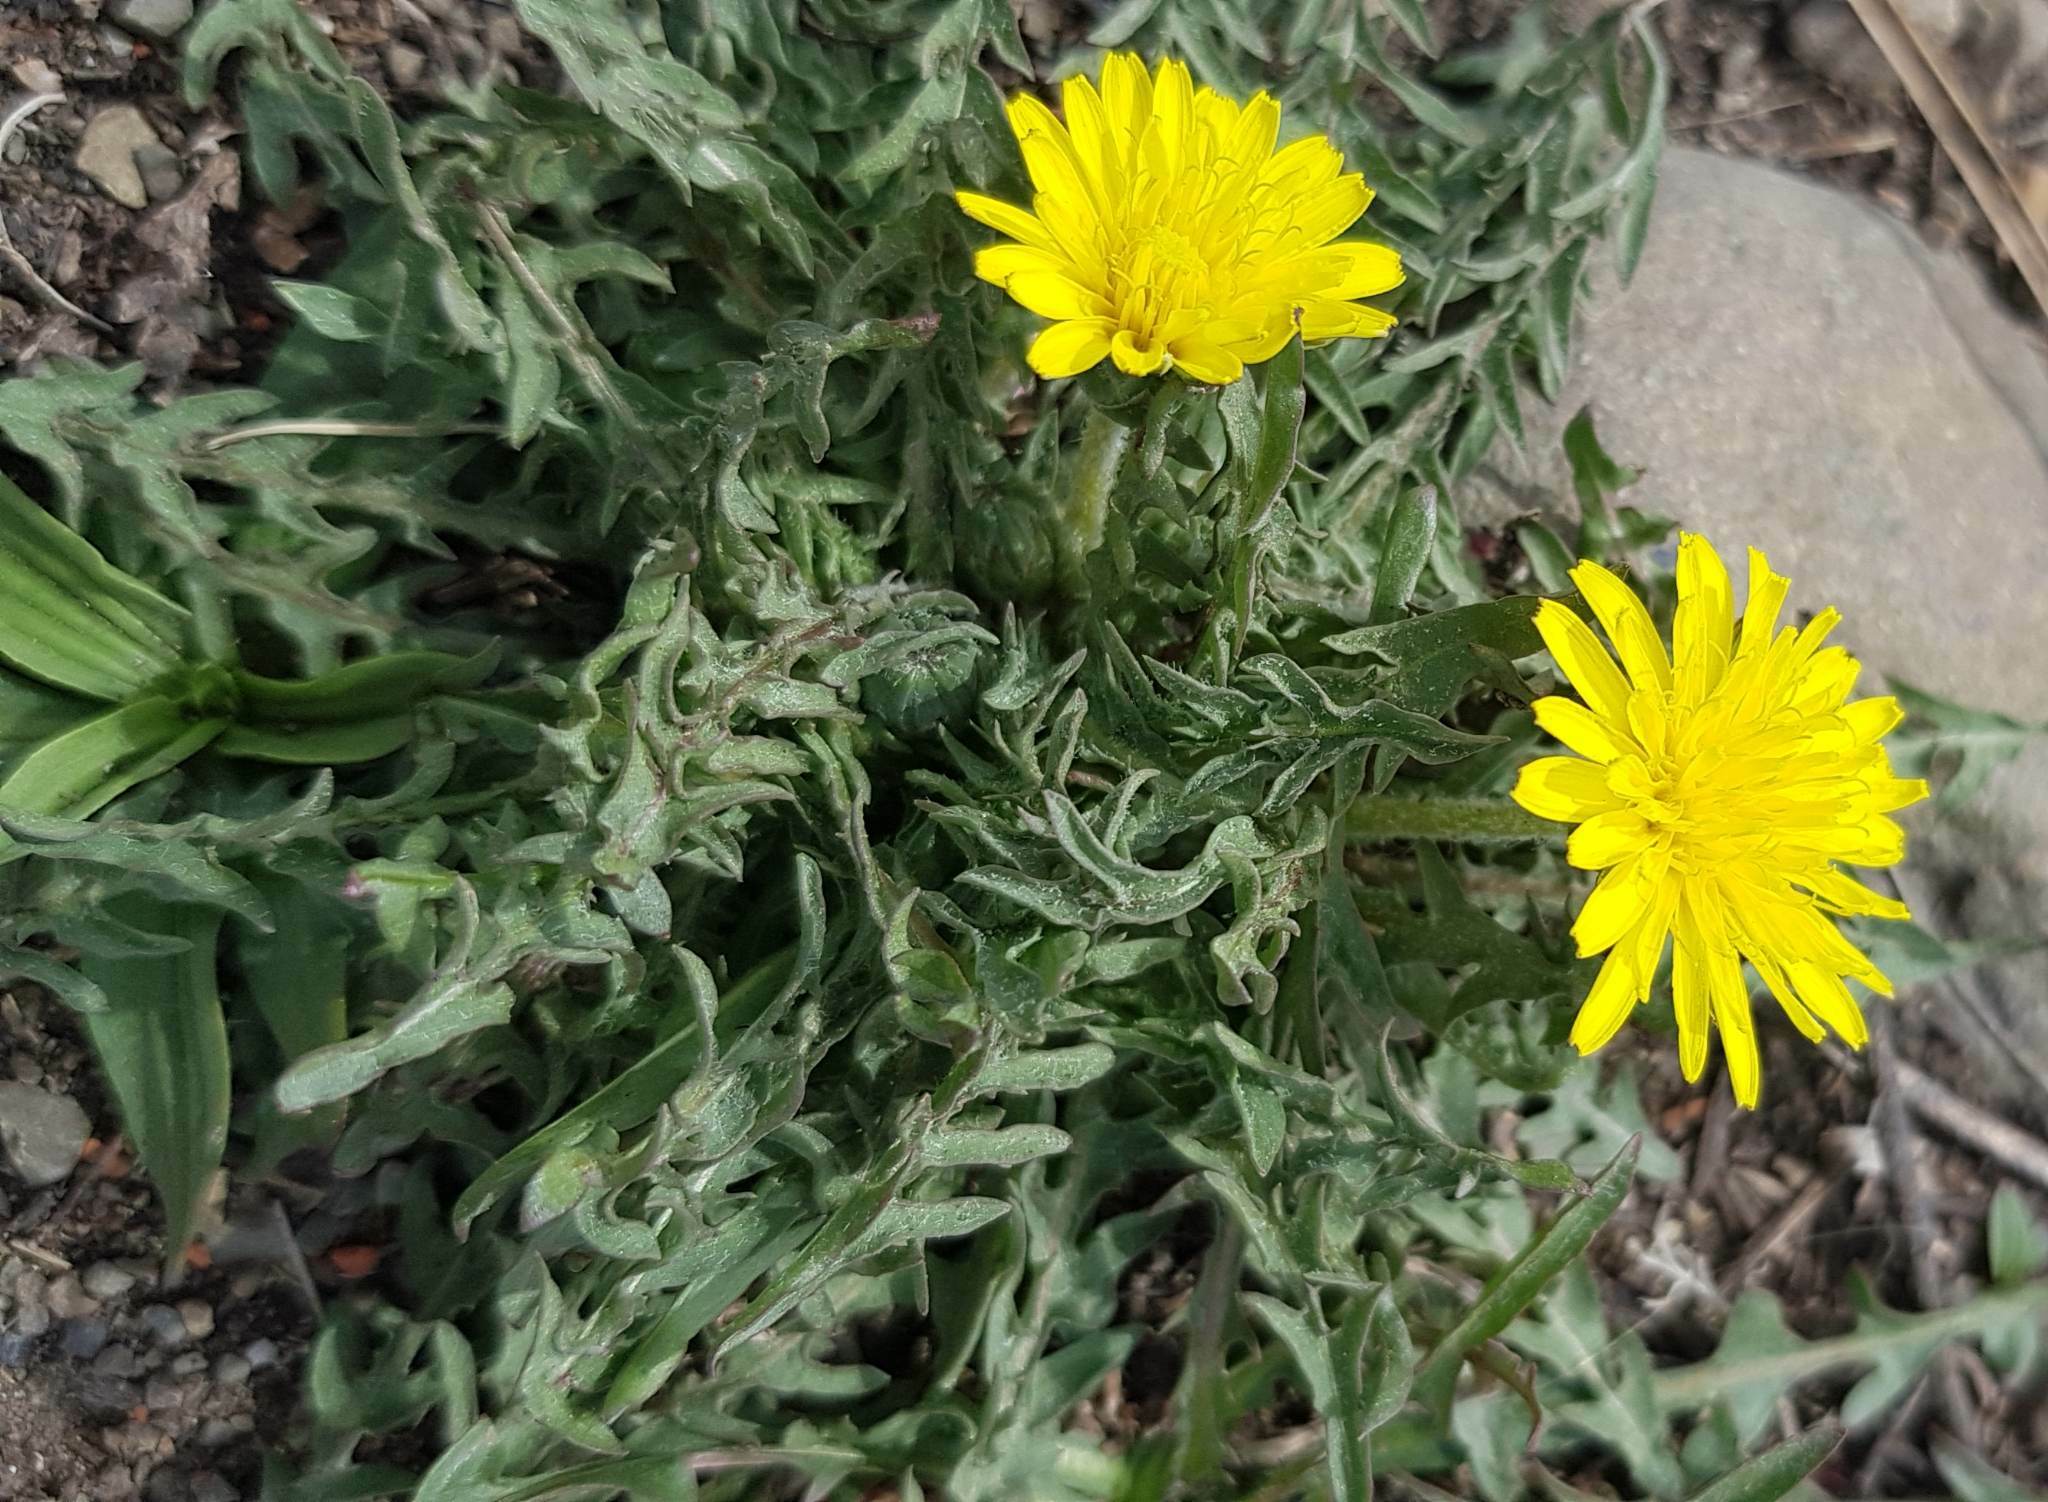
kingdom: Plantae
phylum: Tracheophyta
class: Magnoliopsida
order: Asterales
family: Asteraceae
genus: Taraxacum
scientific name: Taraxacum officinale
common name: Common dandelion
